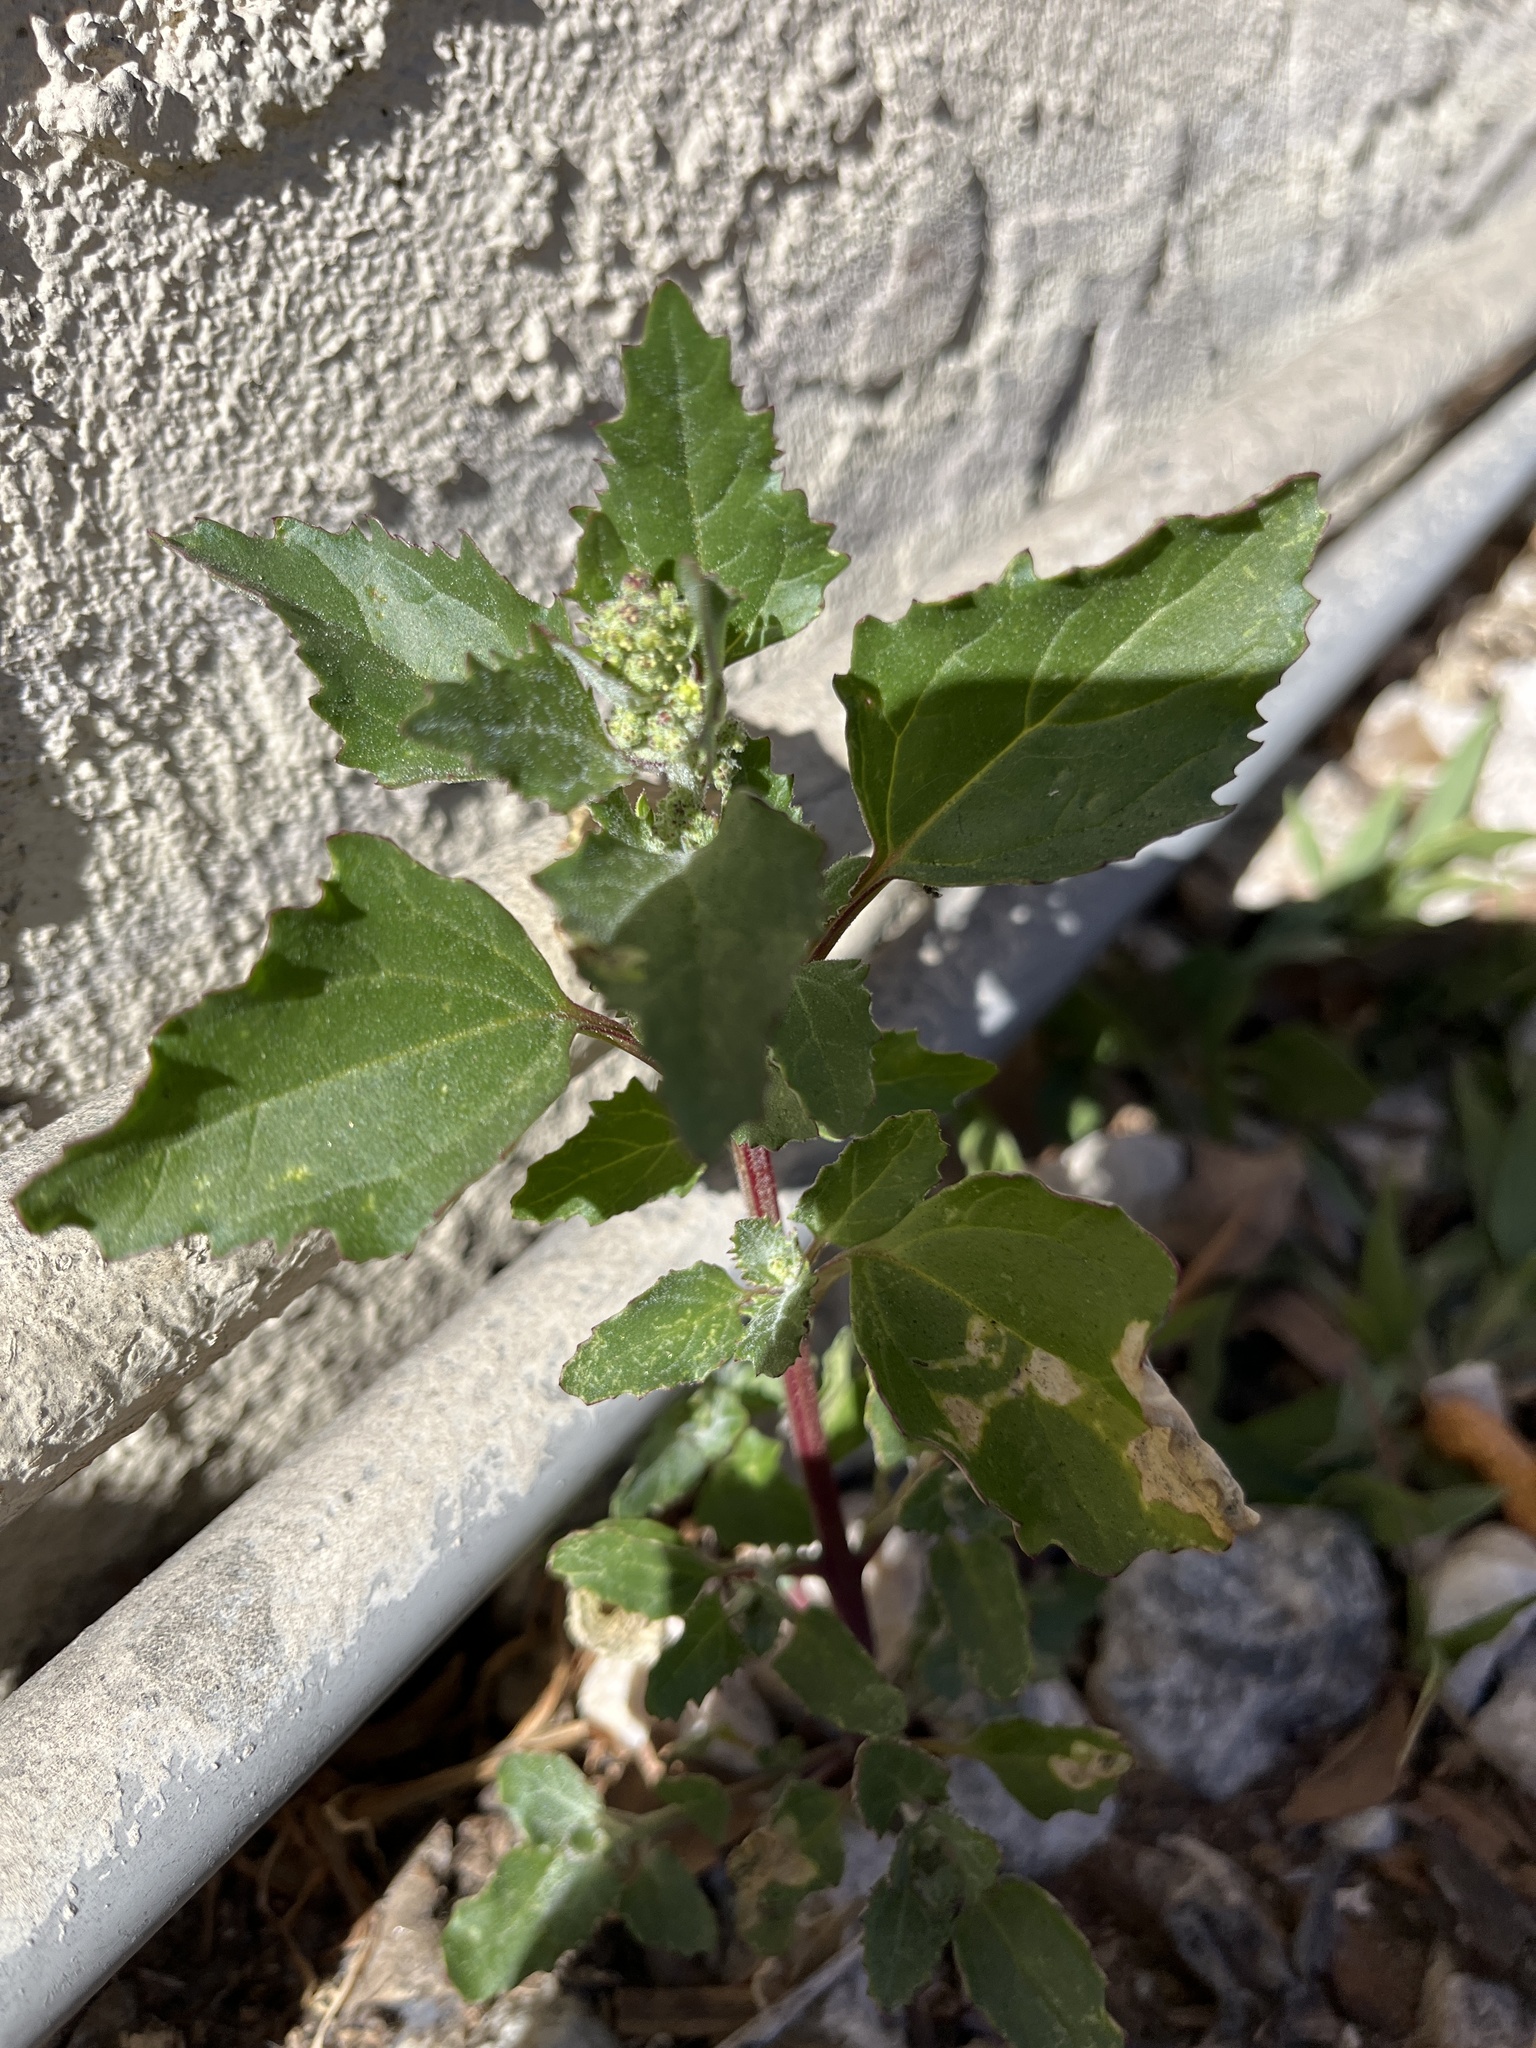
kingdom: Plantae
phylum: Tracheophyta
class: Magnoliopsida
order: Caryophyllales
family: Amaranthaceae
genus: Chenopodiastrum
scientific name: Chenopodiastrum murale
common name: Sowbane
